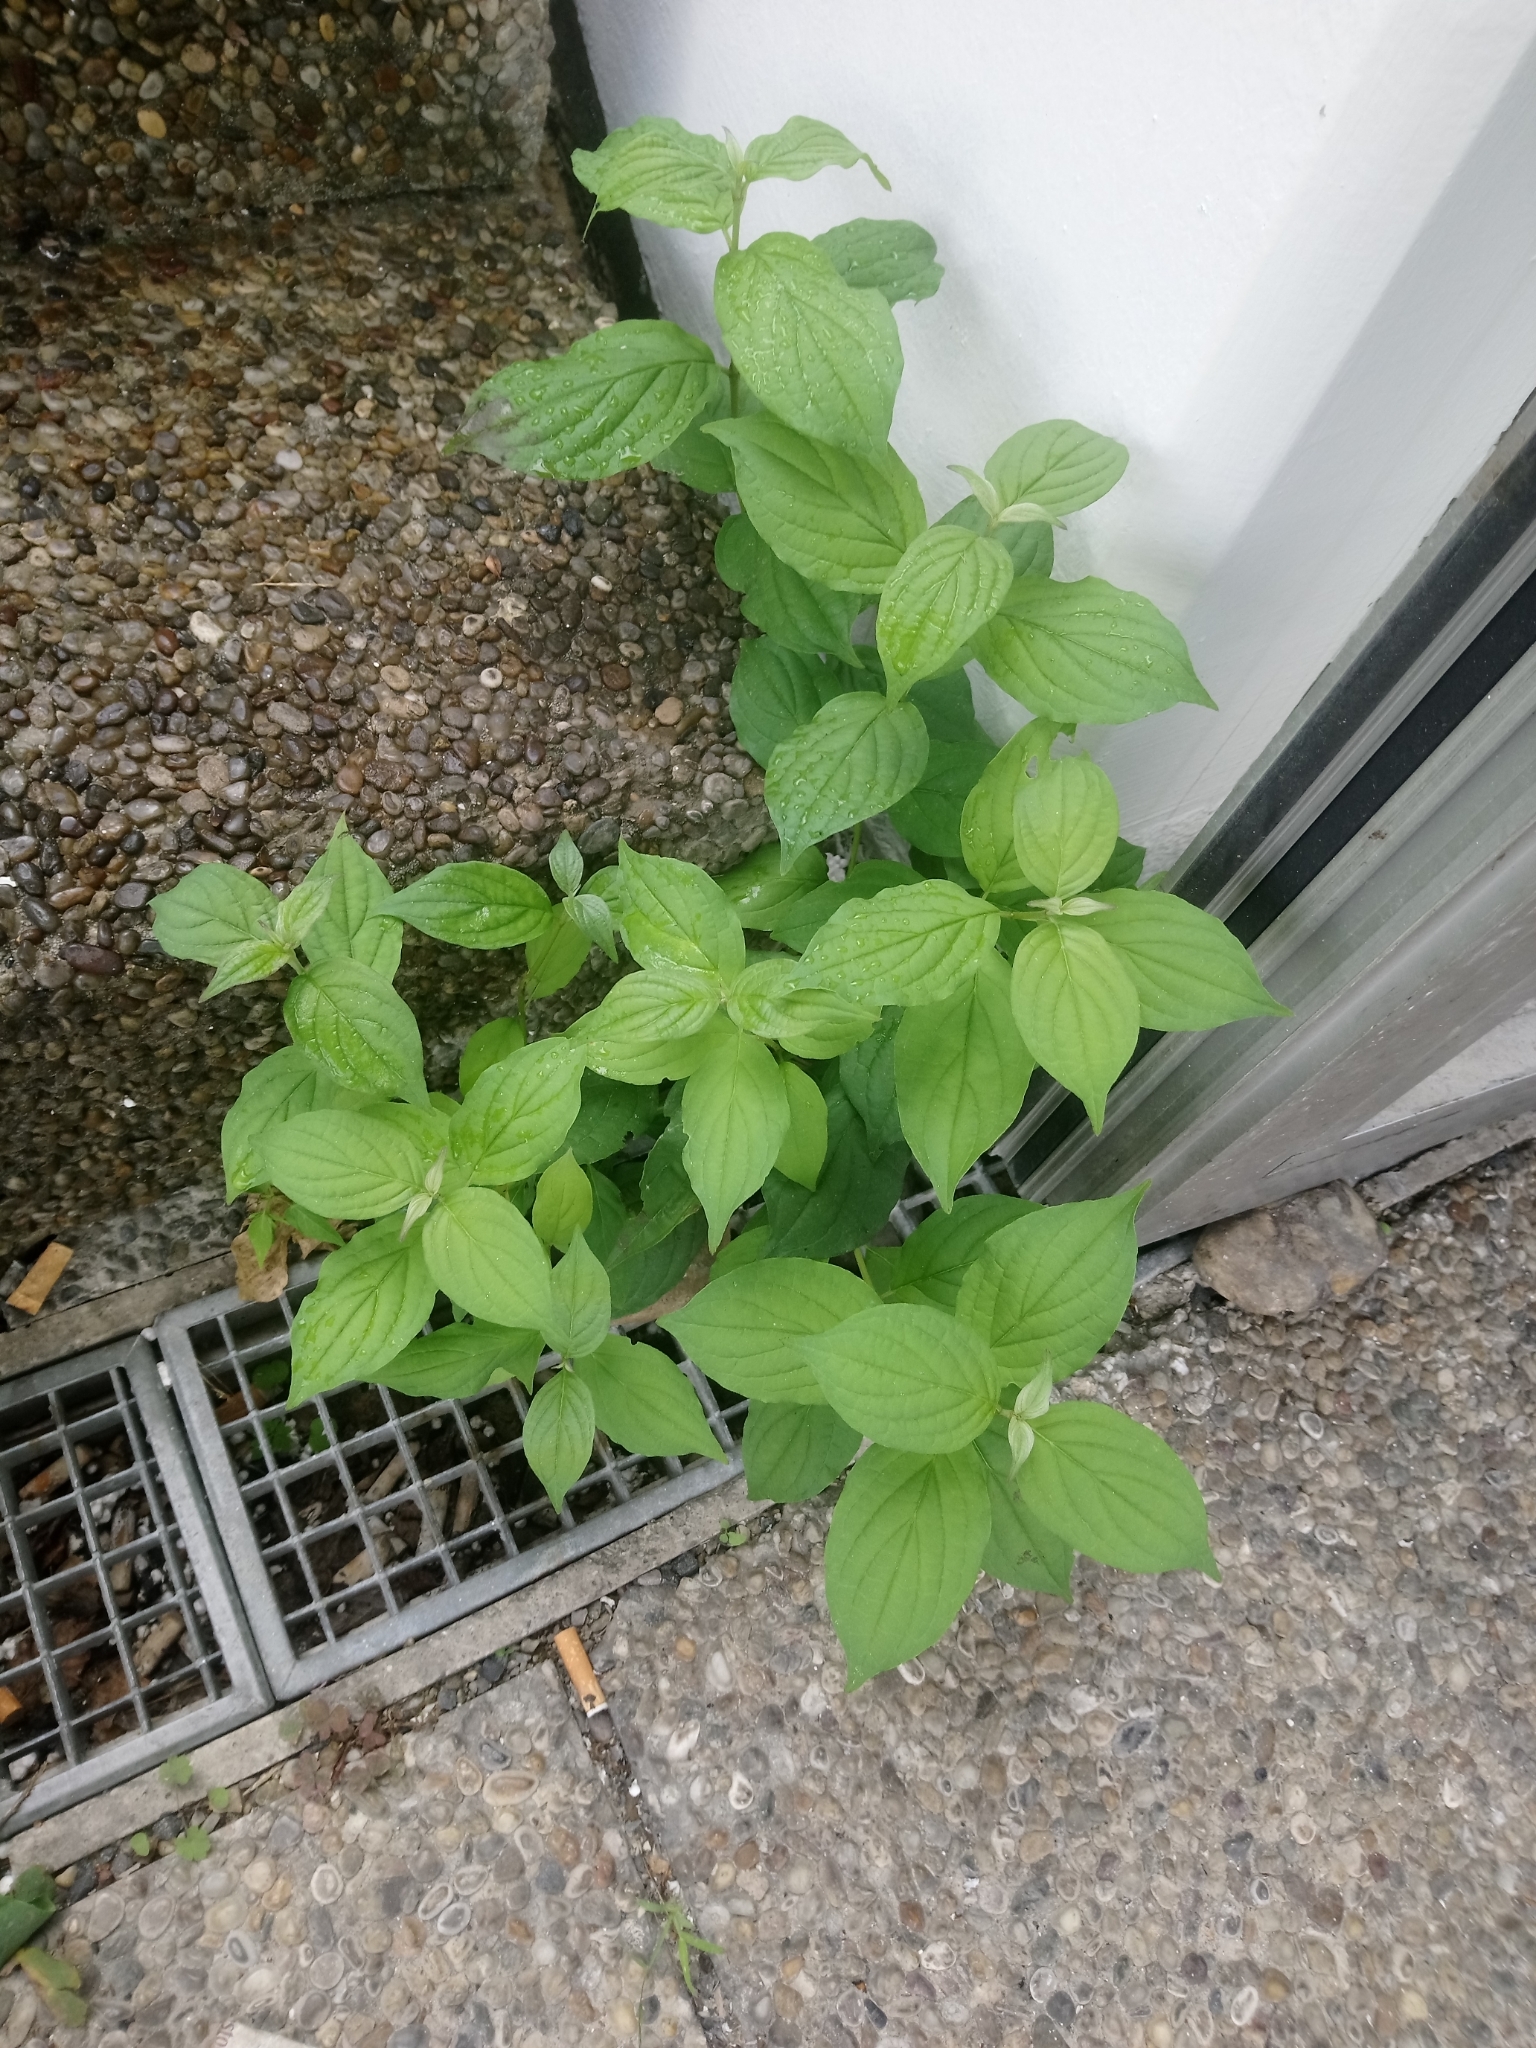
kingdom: Plantae
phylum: Tracheophyta
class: Magnoliopsida
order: Cornales
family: Cornaceae
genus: Cornus
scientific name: Cornus sanguinea
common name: Dogwood
